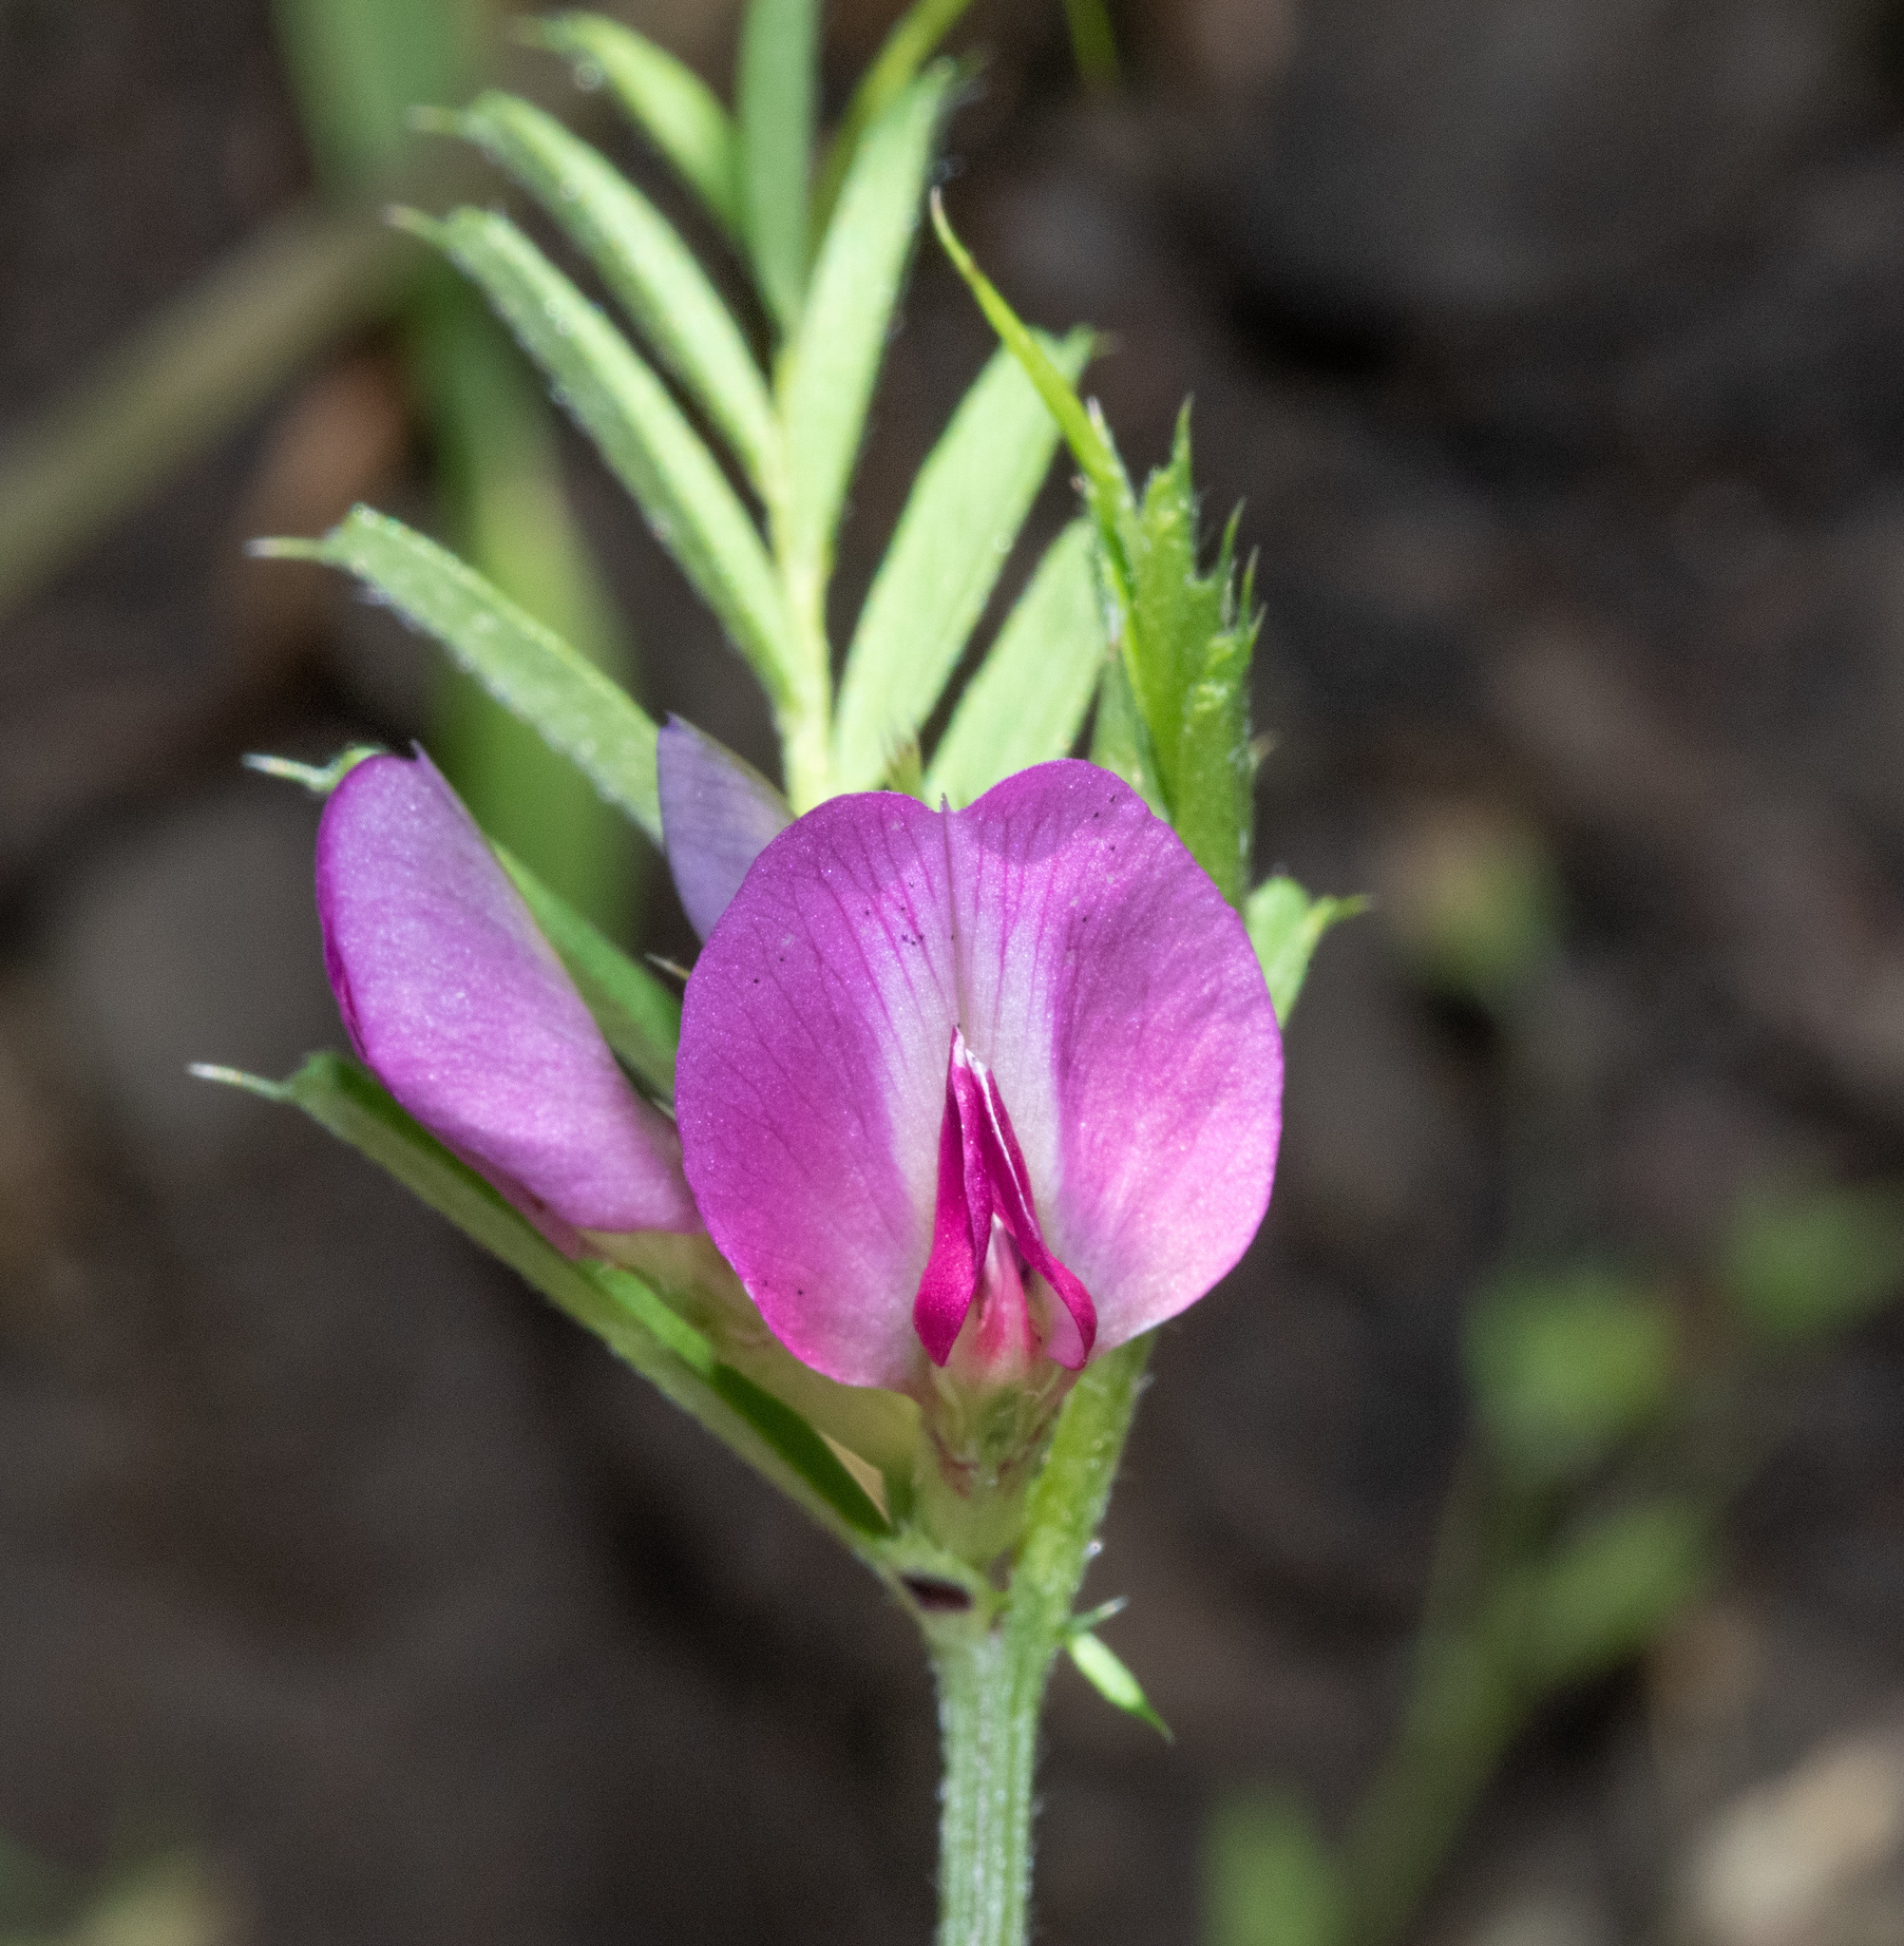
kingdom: Plantae
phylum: Tracheophyta
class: Magnoliopsida
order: Fabales
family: Fabaceae
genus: Vicia
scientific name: Vicia sativa
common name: Garden vetch
